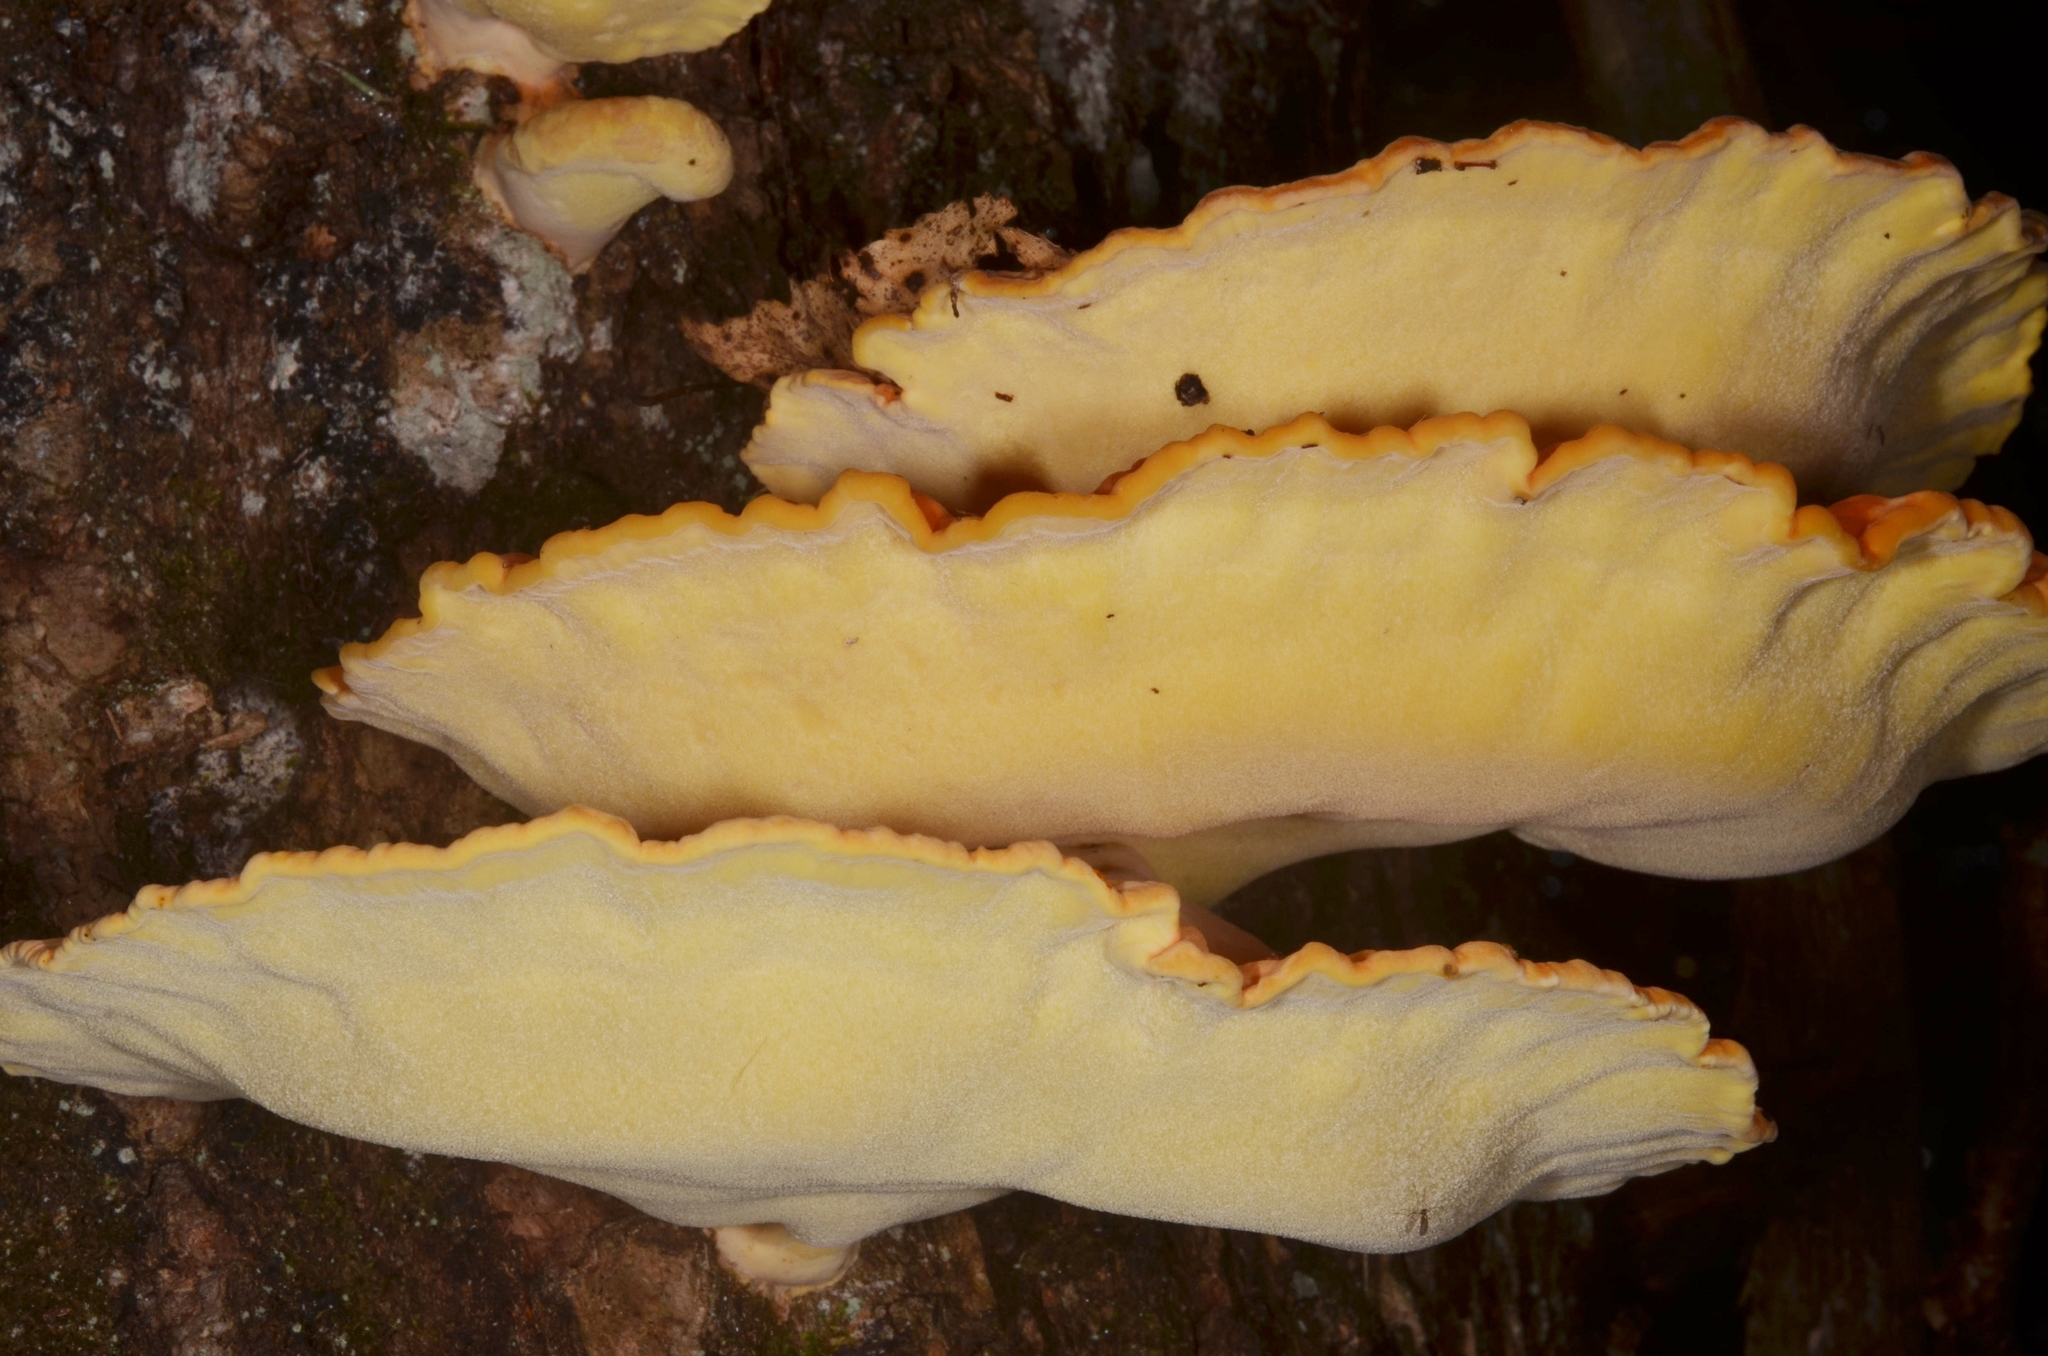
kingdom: Fungi
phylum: Basidiomycota
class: Agaricomycetes
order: Polyporales
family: Laetiporaceae
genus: Laetiporus
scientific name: Laetiporus sulphureus
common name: Chicken of the woods
